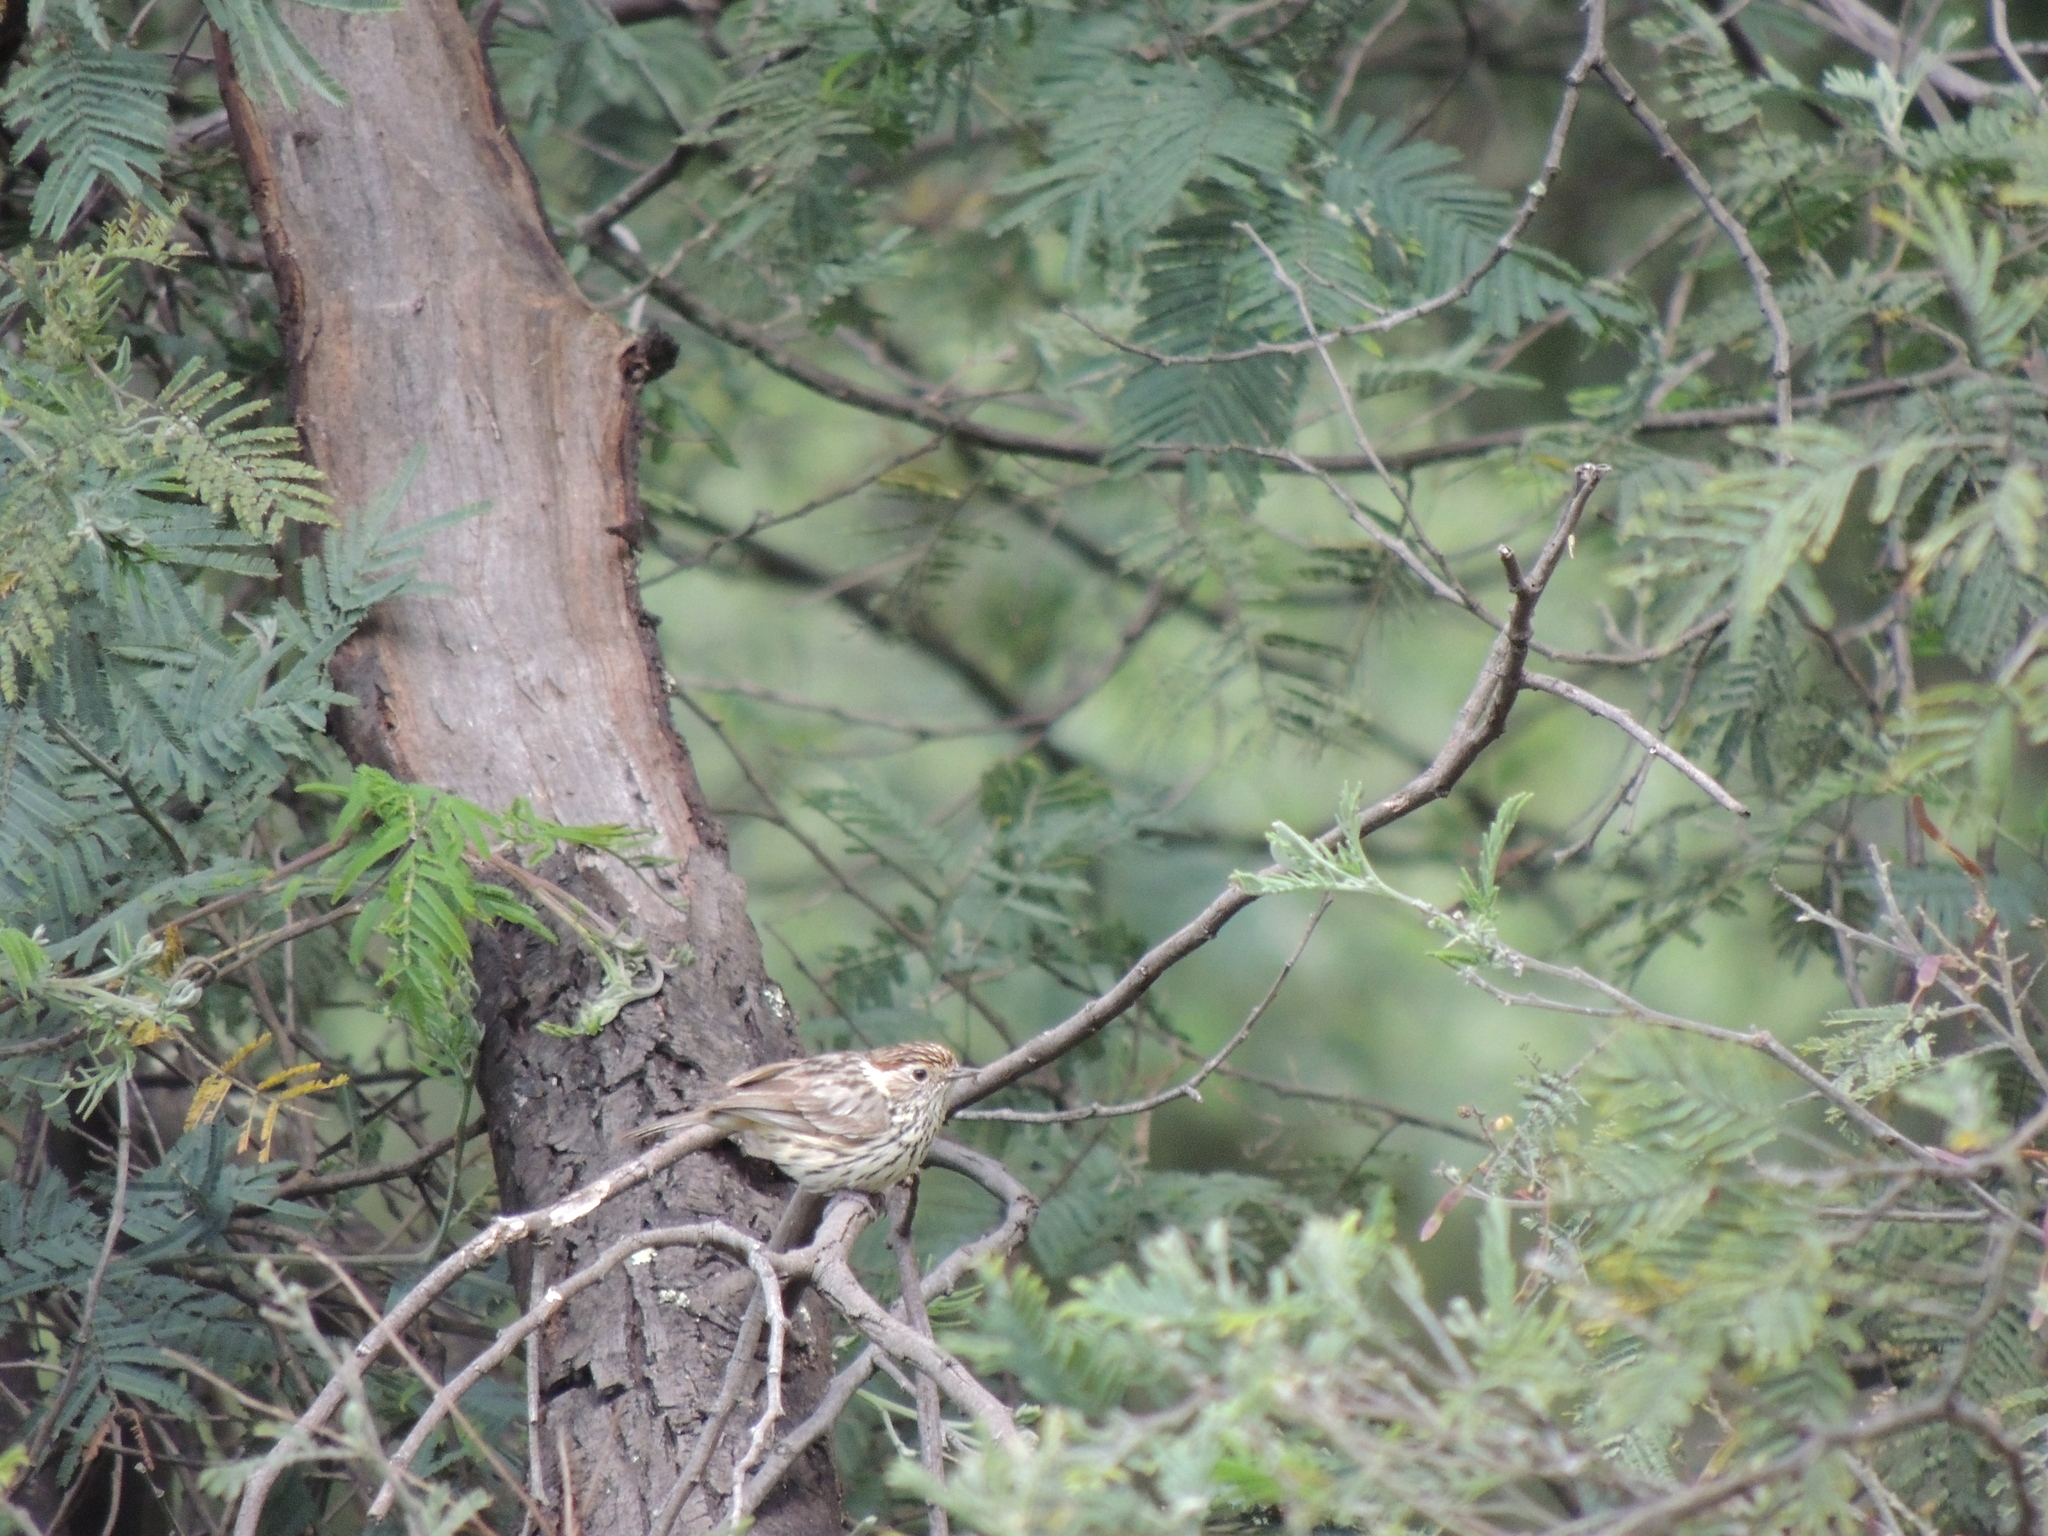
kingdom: Animalia
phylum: Chordata
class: Aves
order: Passeriformes
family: Acanthizidae
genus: Pyrrholaemus
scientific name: Pyrrholaemus sagittatus
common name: Speckled warbler
